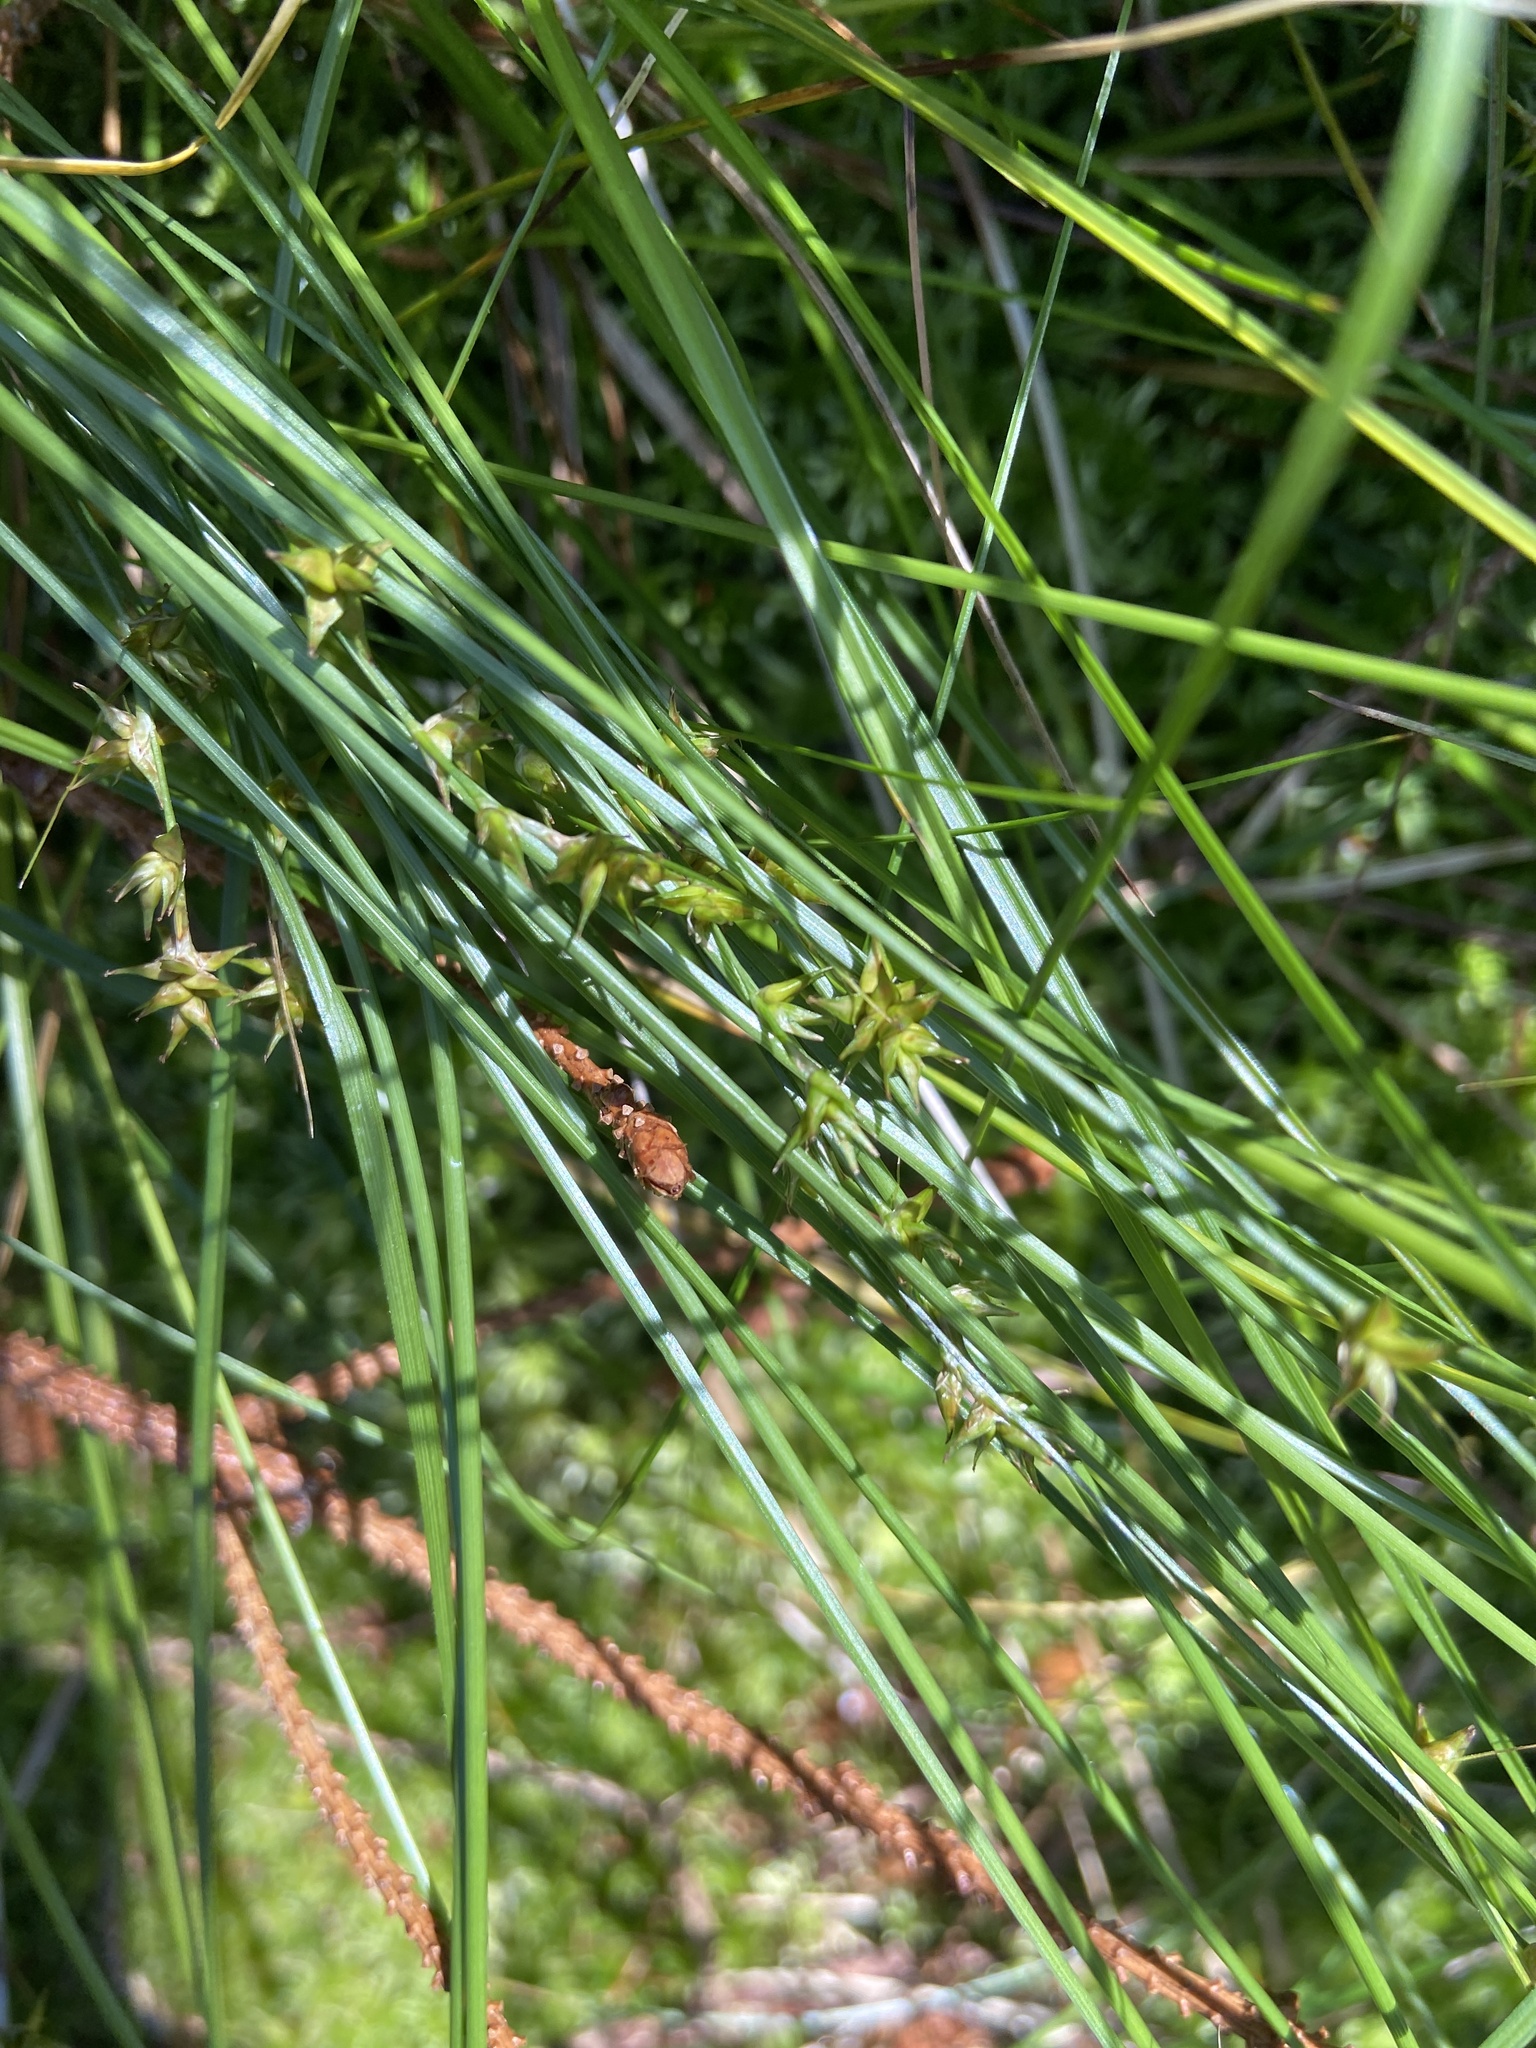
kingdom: Plantae
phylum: Tracheophyta
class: Liliopsida
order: Poales
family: Cyperaceae
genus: Carex
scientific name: Carex echinata
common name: Star sedge
